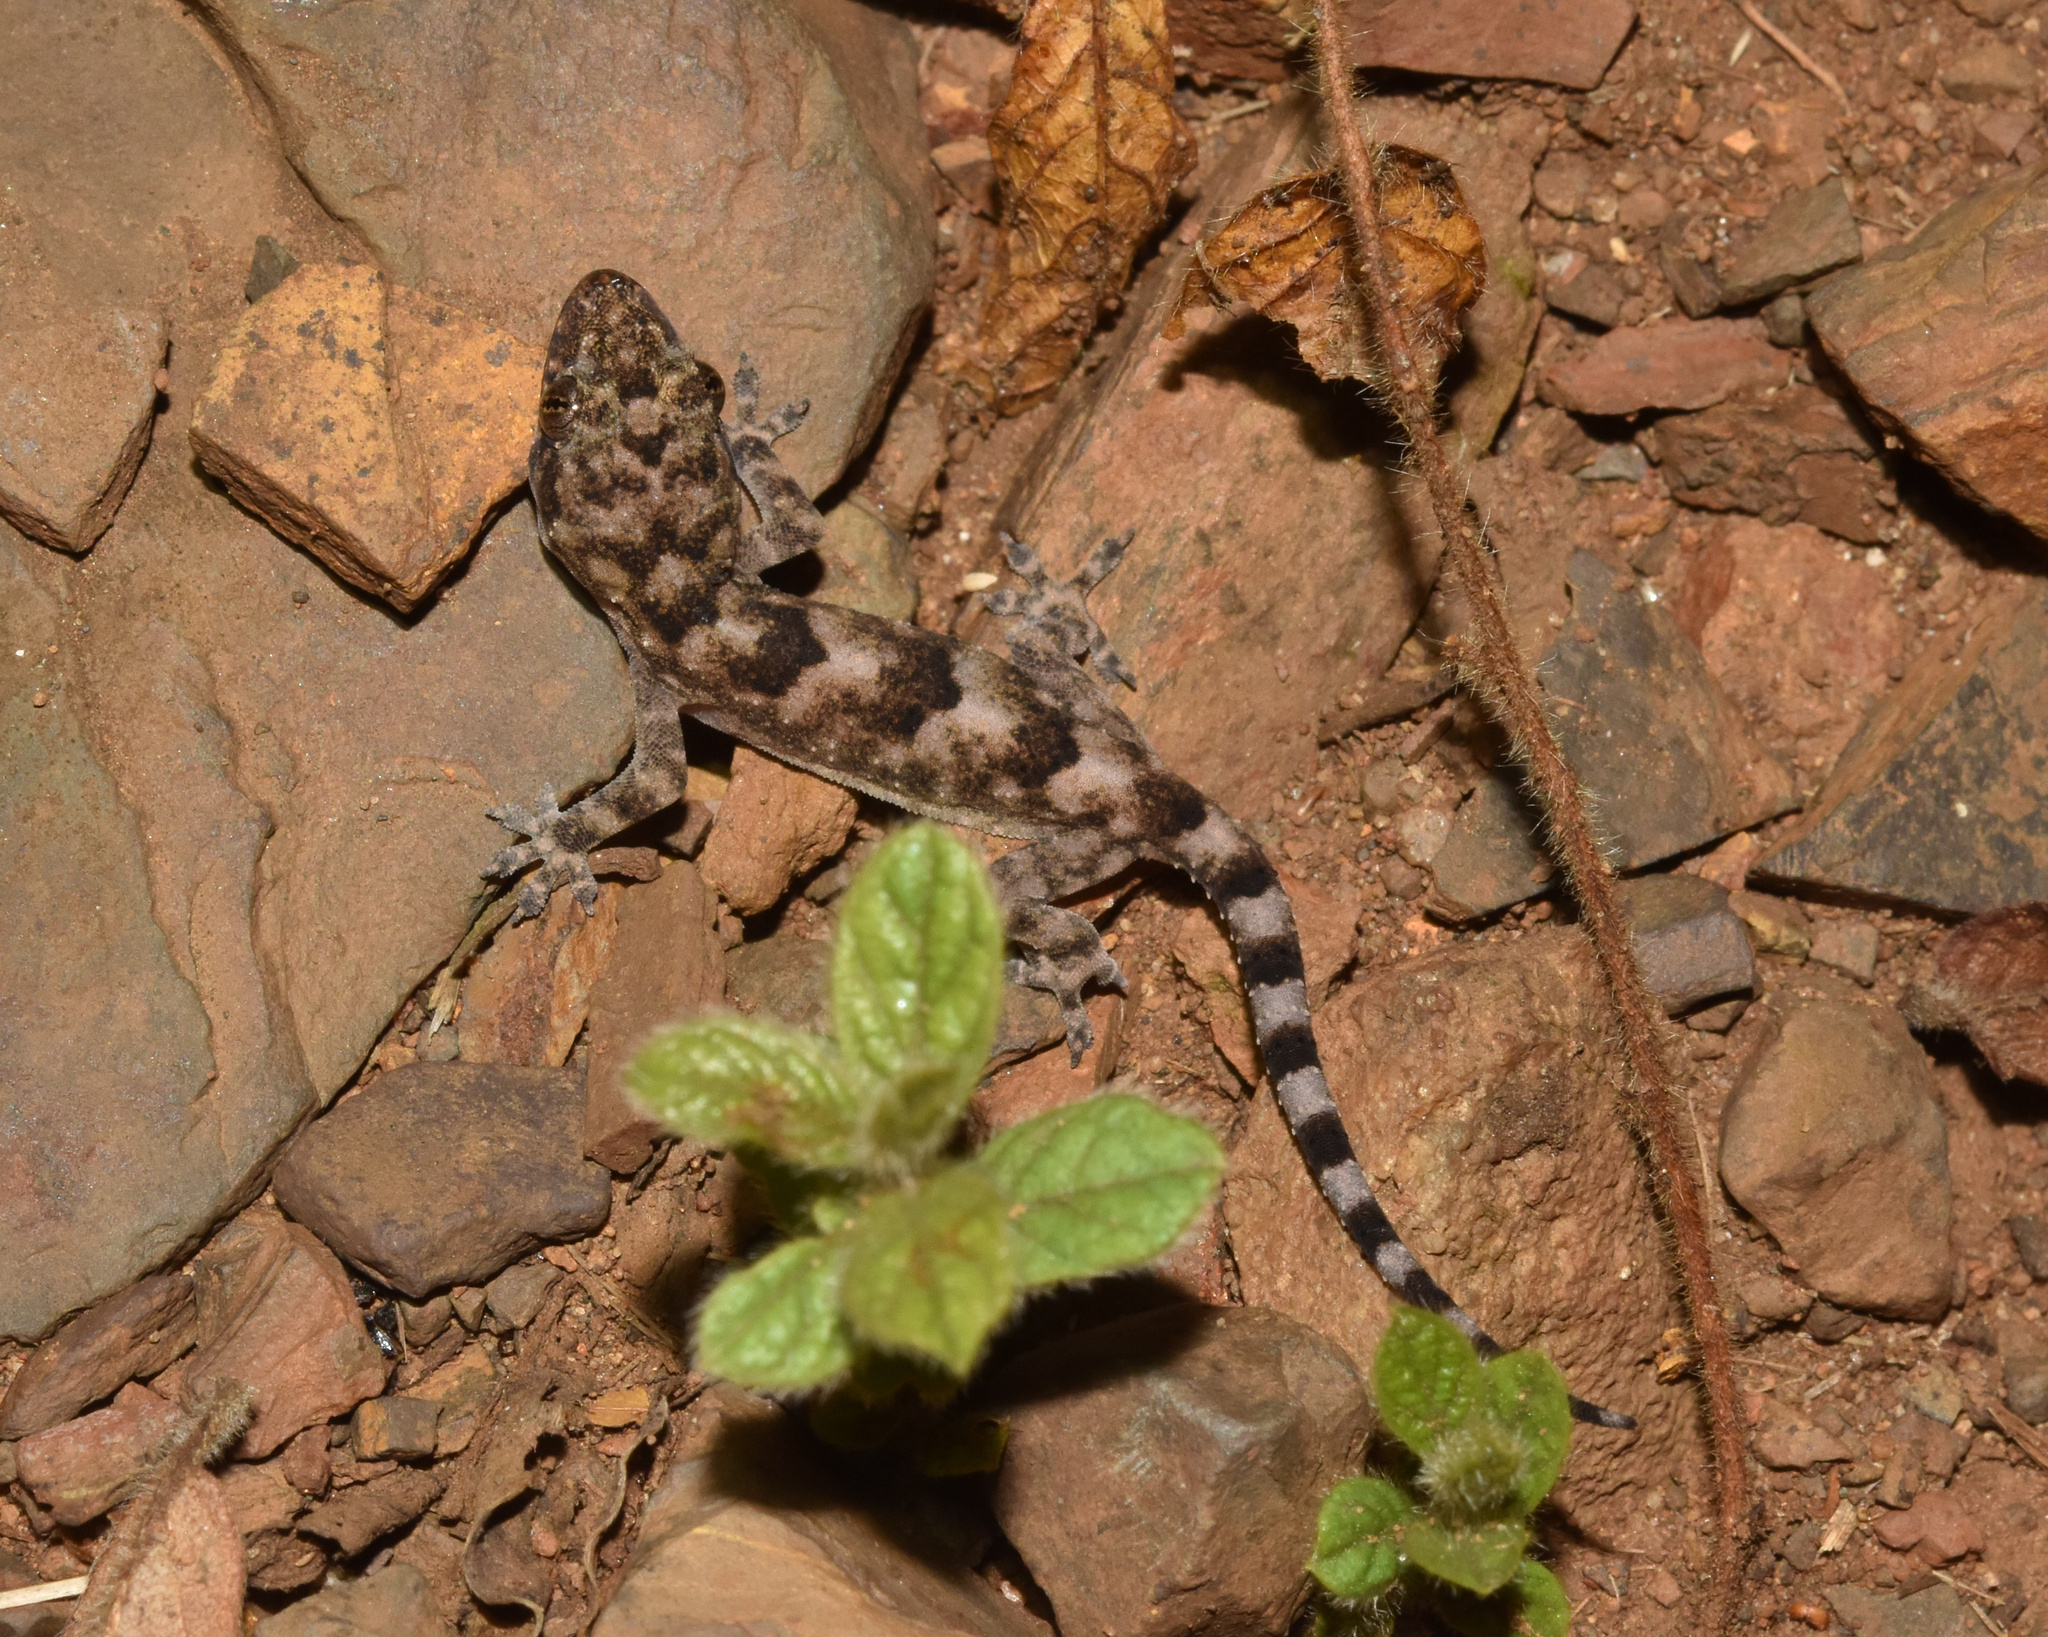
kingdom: Animalia
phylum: Chordata
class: Squamata
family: Gekkonidae
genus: Hemidactylus
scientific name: Hemidactylus mabouia
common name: House gecko
